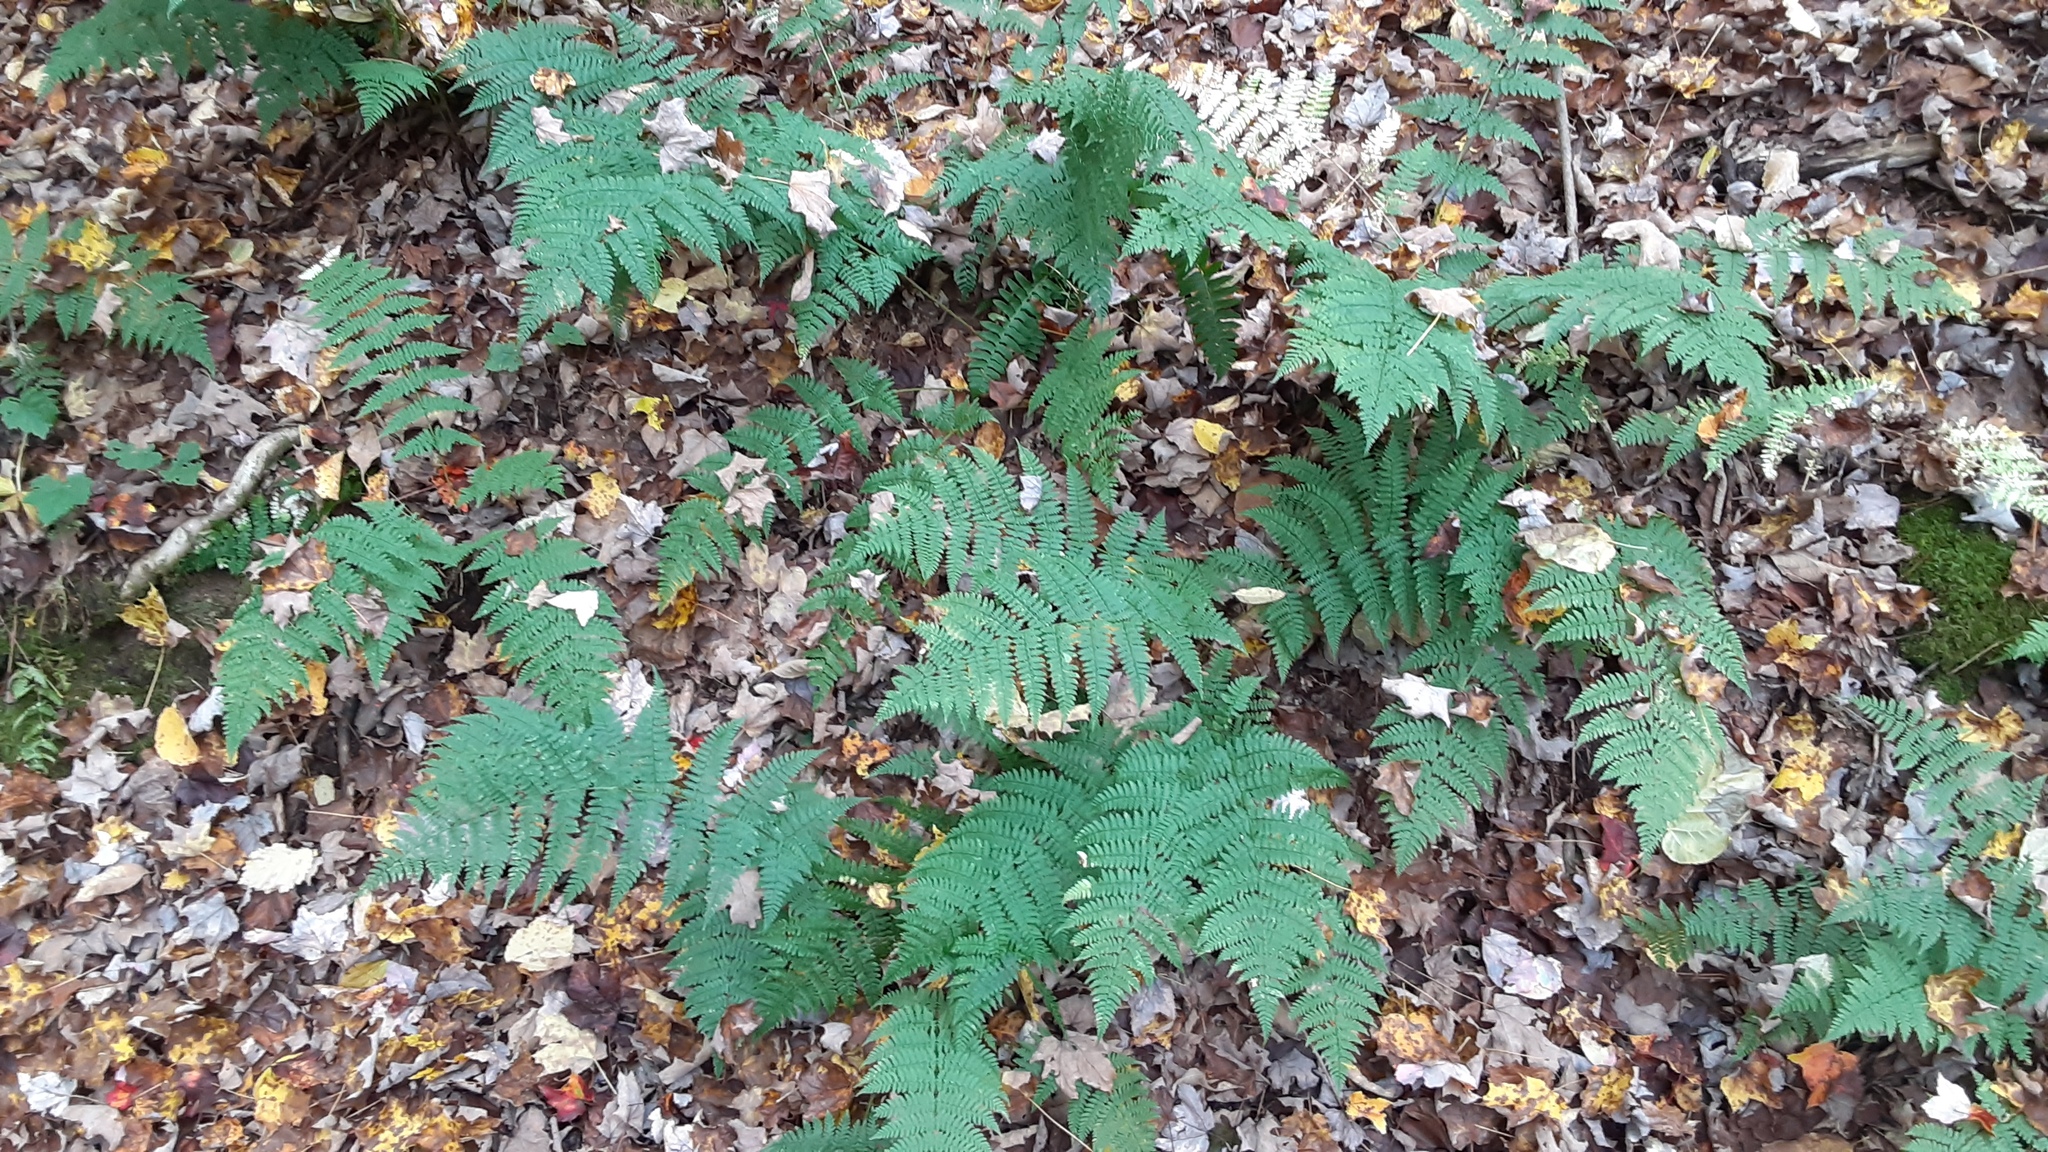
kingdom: Plantae
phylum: Tracheophyta
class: Polypodiopsida
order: Polypodiales
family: Dryopteridaceae
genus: Dryopteris
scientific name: Dryopteris intermedia
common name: Evergreen wood fern
